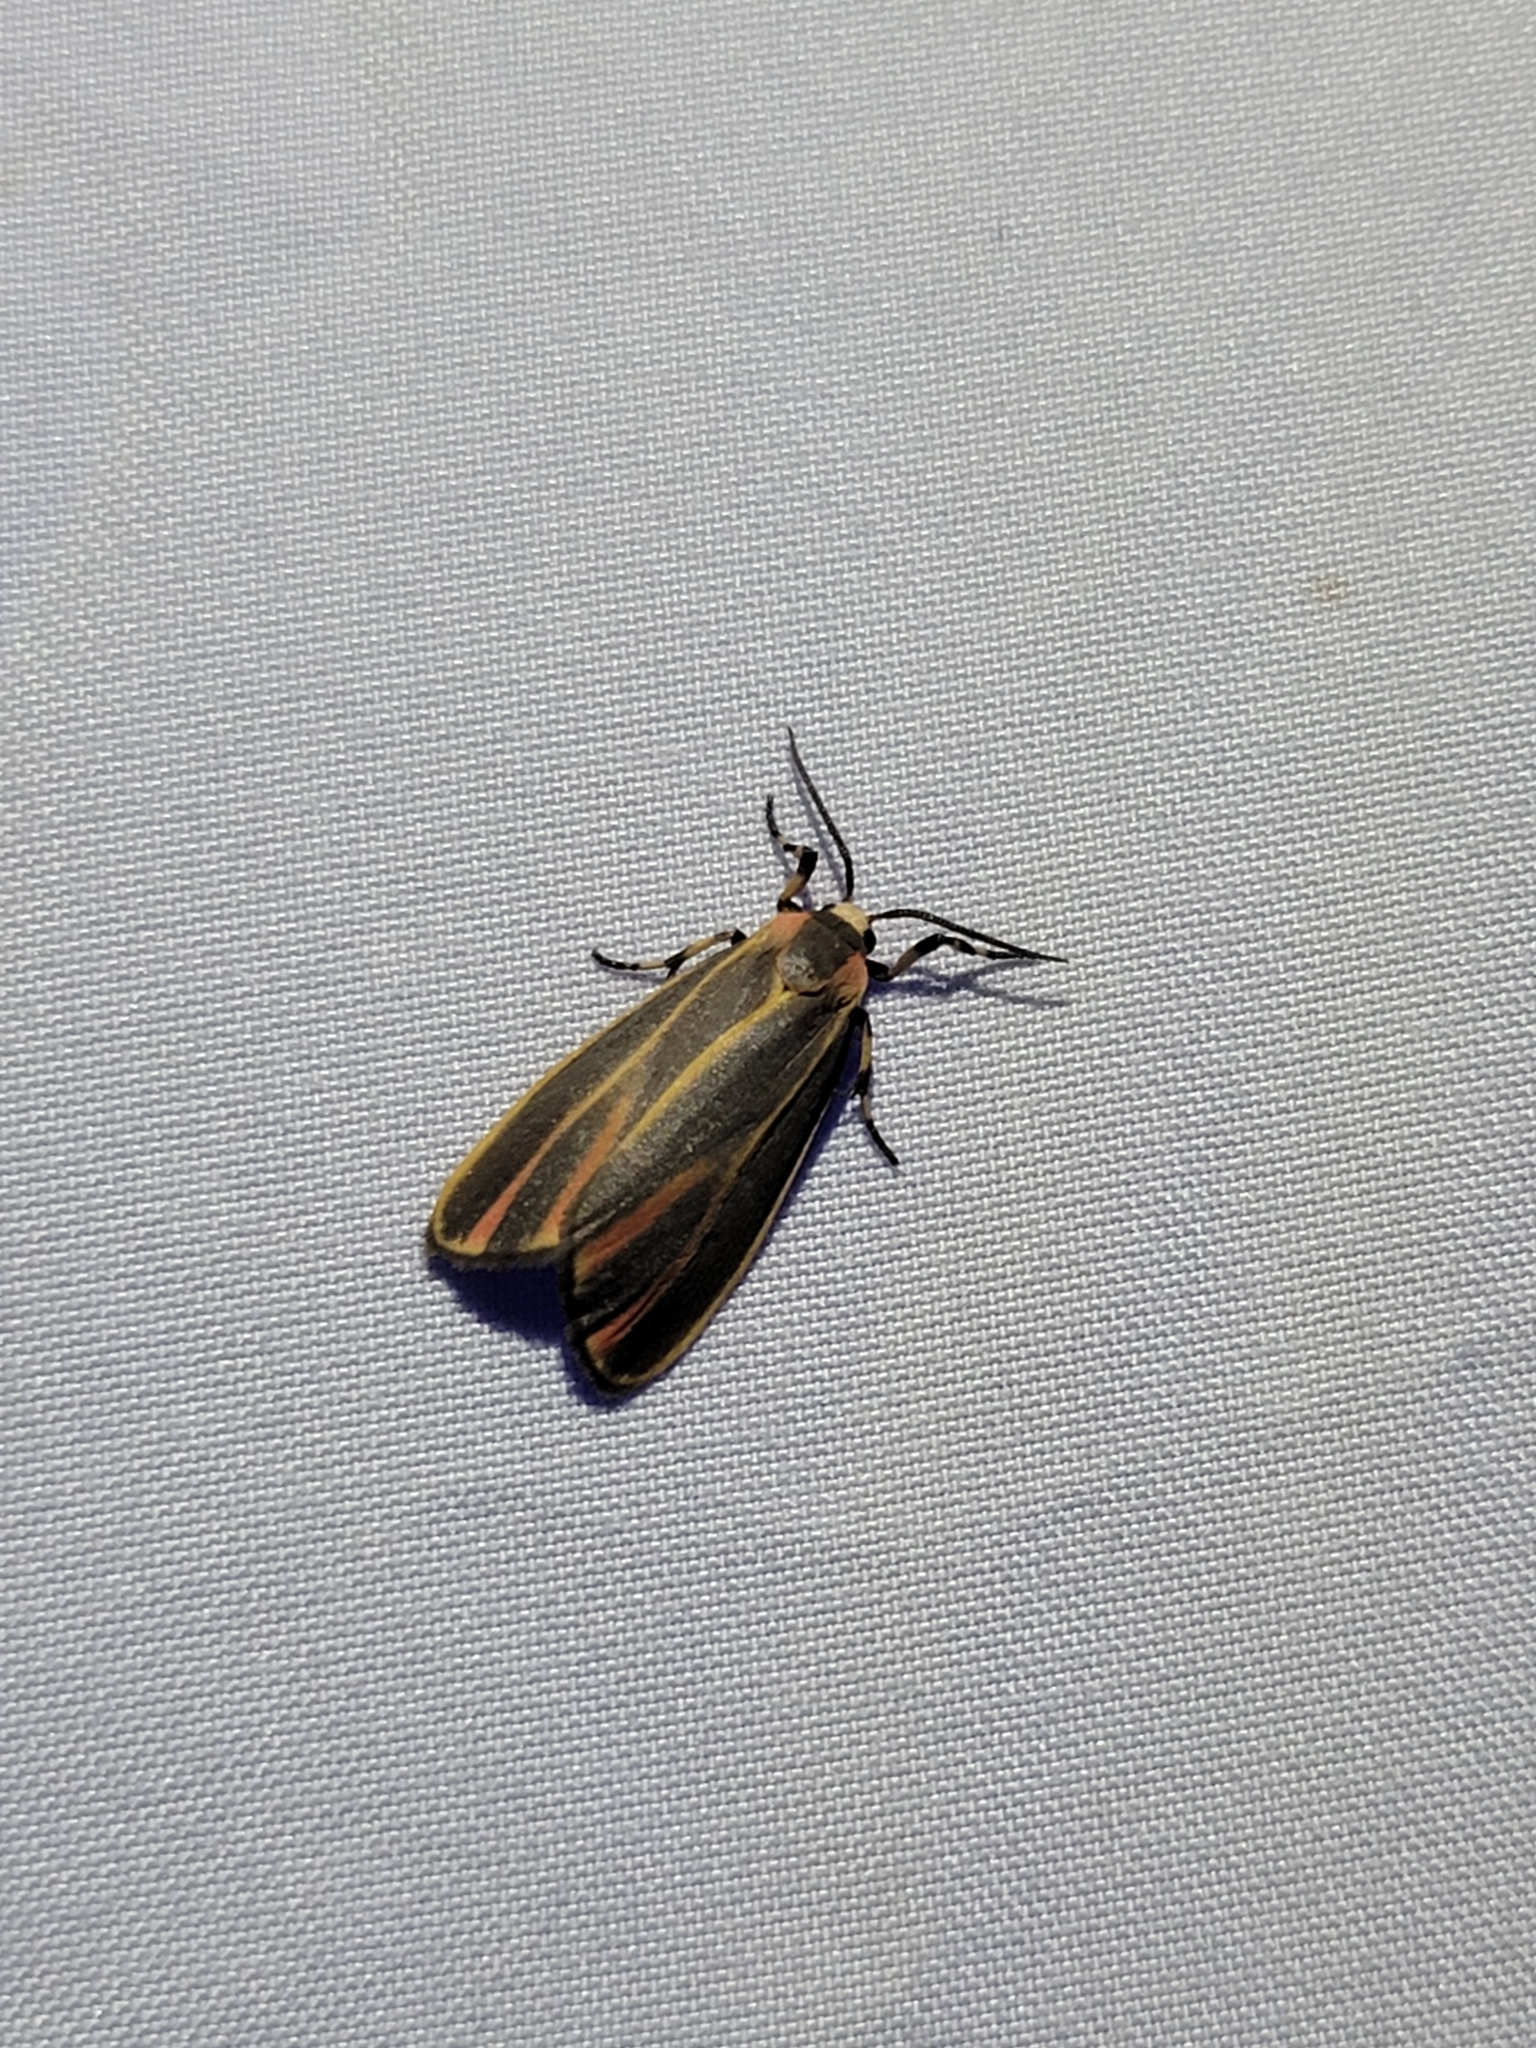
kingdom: Animalia
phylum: Arthropoda
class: Insecta
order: Lepidoptera
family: Erebidae
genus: Hypoprepia
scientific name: Hypoprepia fucosa
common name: Painted lichen moth
